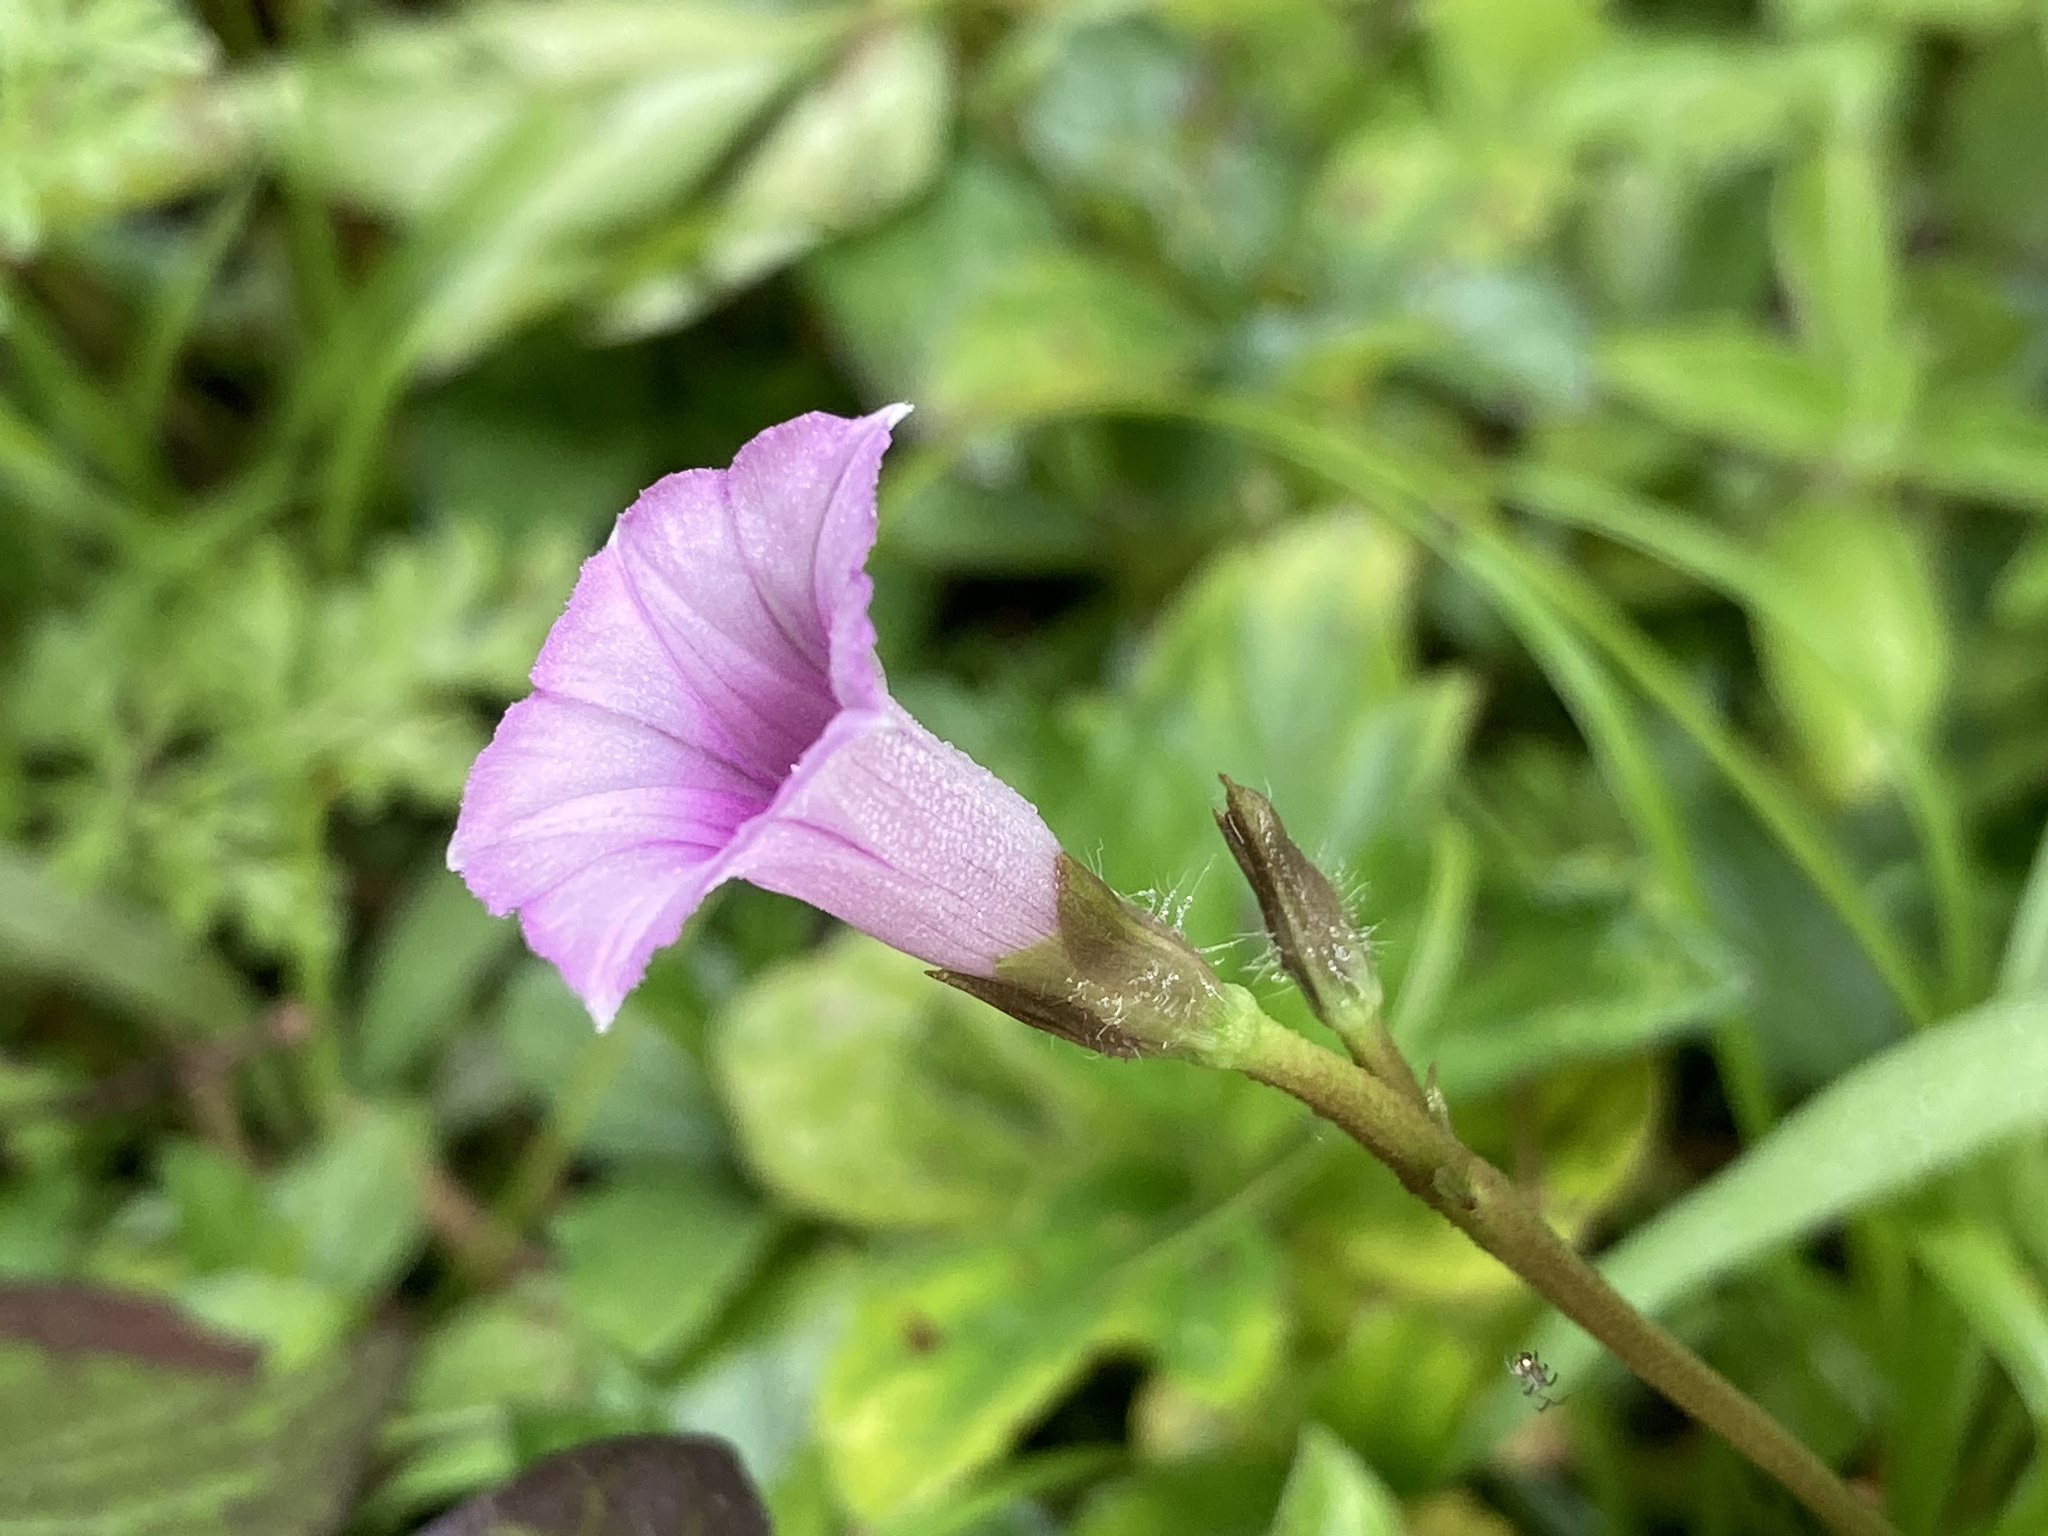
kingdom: Plantae
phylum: Tracheophyta
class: Magnoliopsida
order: Solanales
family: Convolvulaceae
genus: Ipomoea
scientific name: Ipomoea triloba
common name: Little-bell
